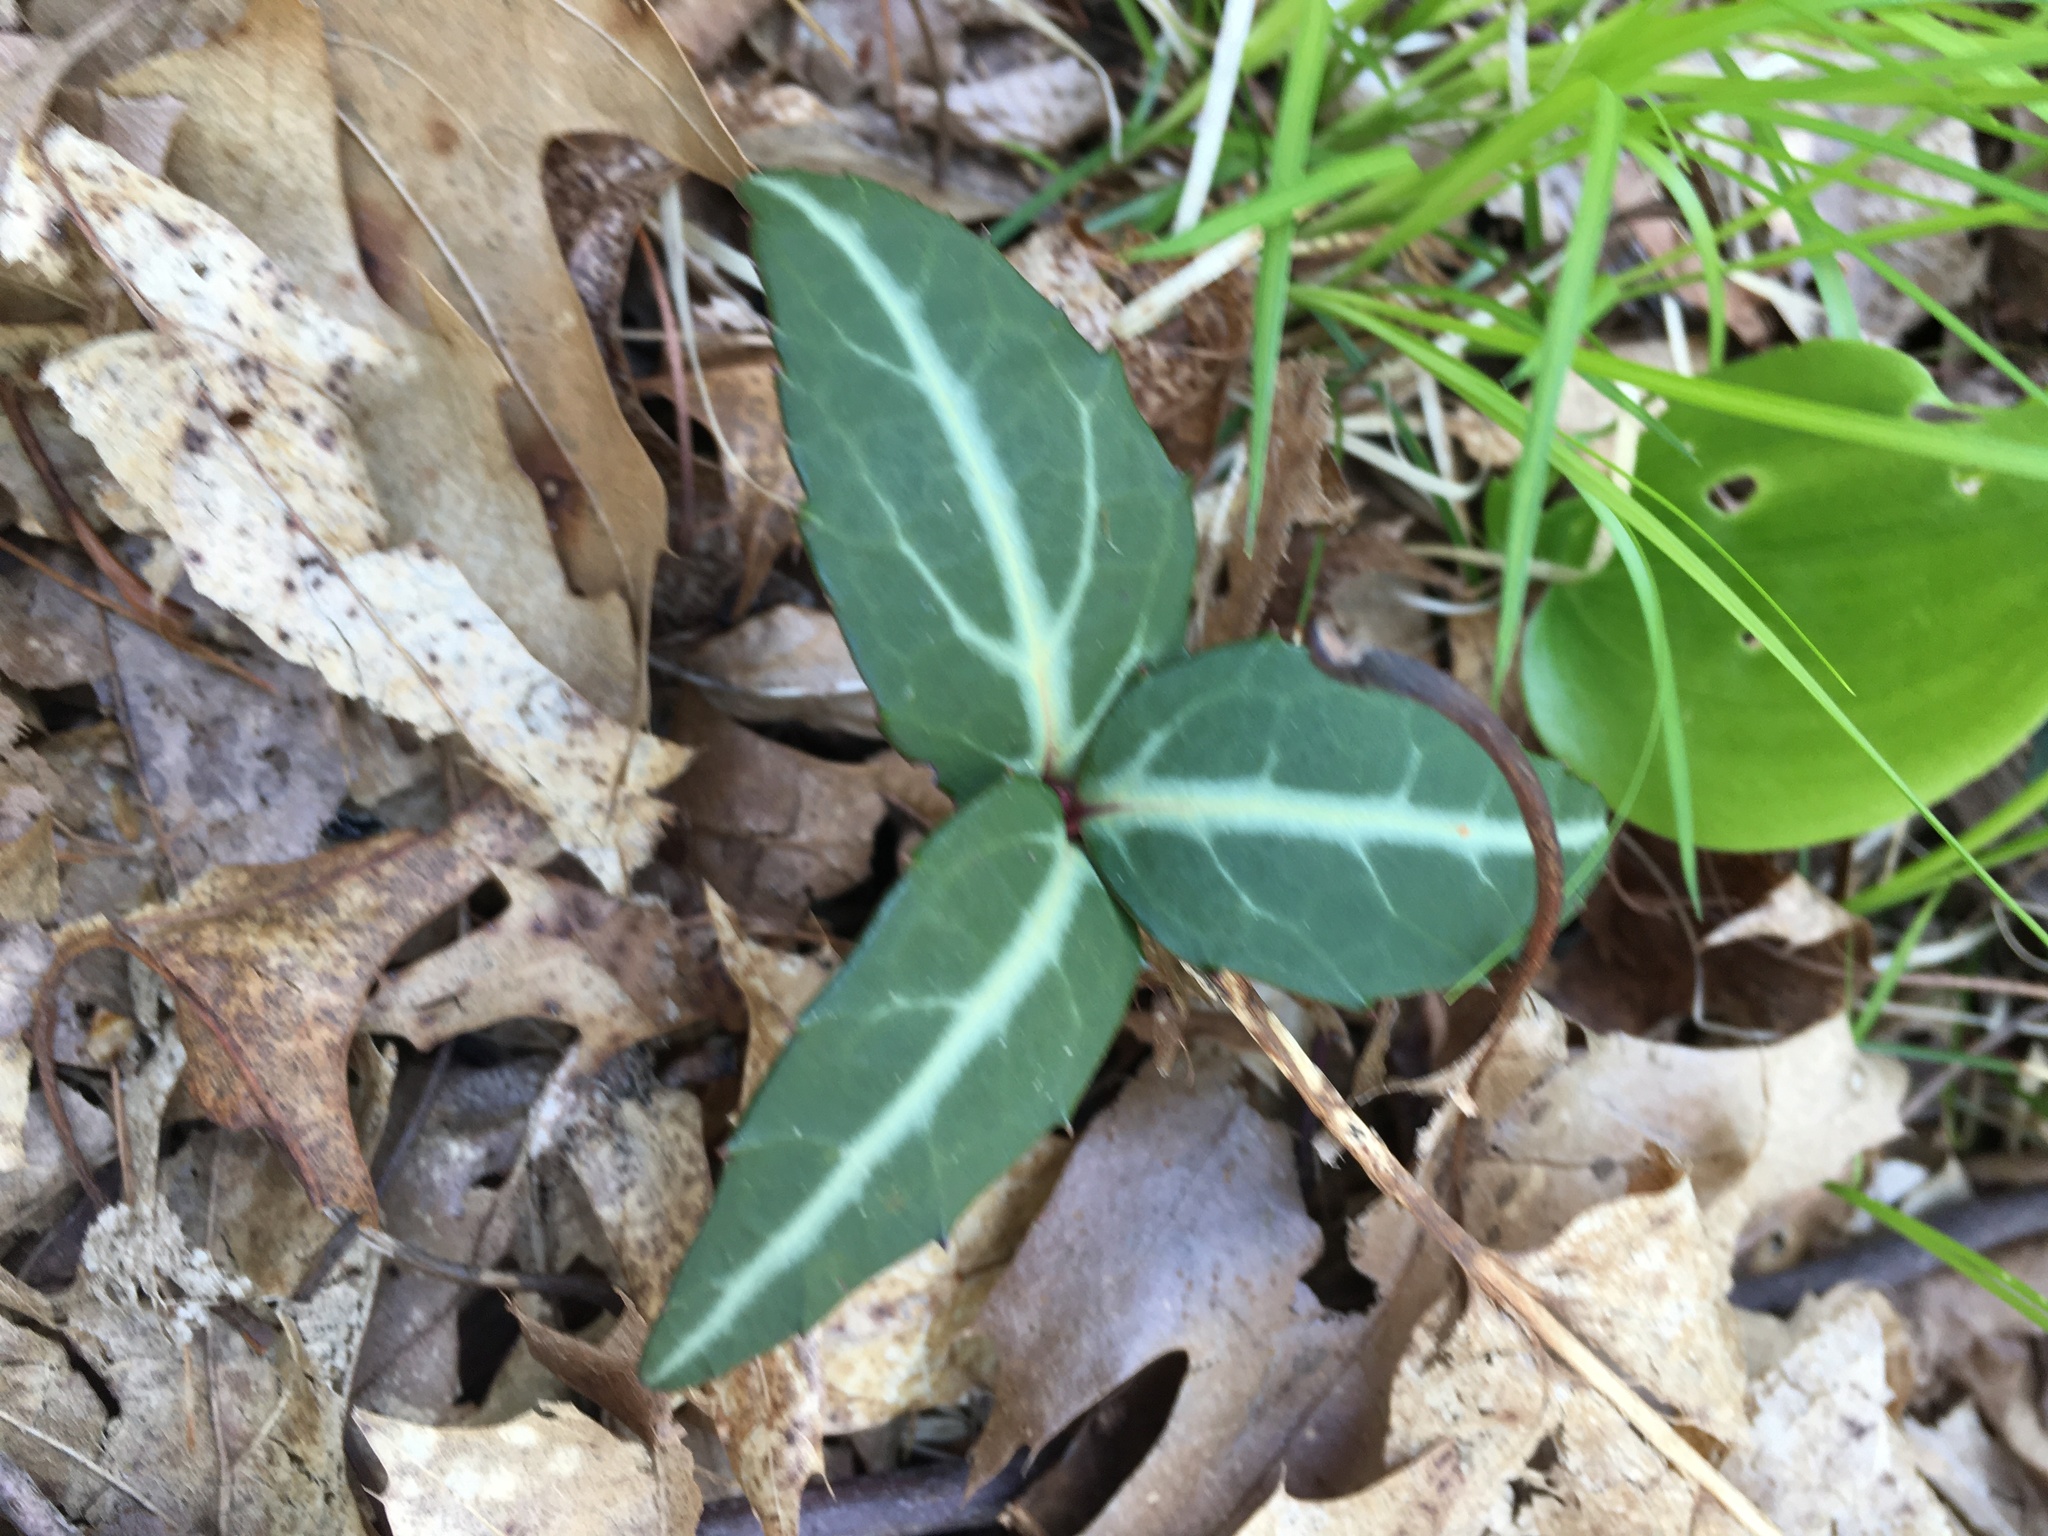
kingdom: Plantae
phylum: Tracheophyta
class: Magnoliopsida
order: Ericales
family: Ericaceae
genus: Chimaphila
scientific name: Chimaphila maculata
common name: Spotted pipsissewa
